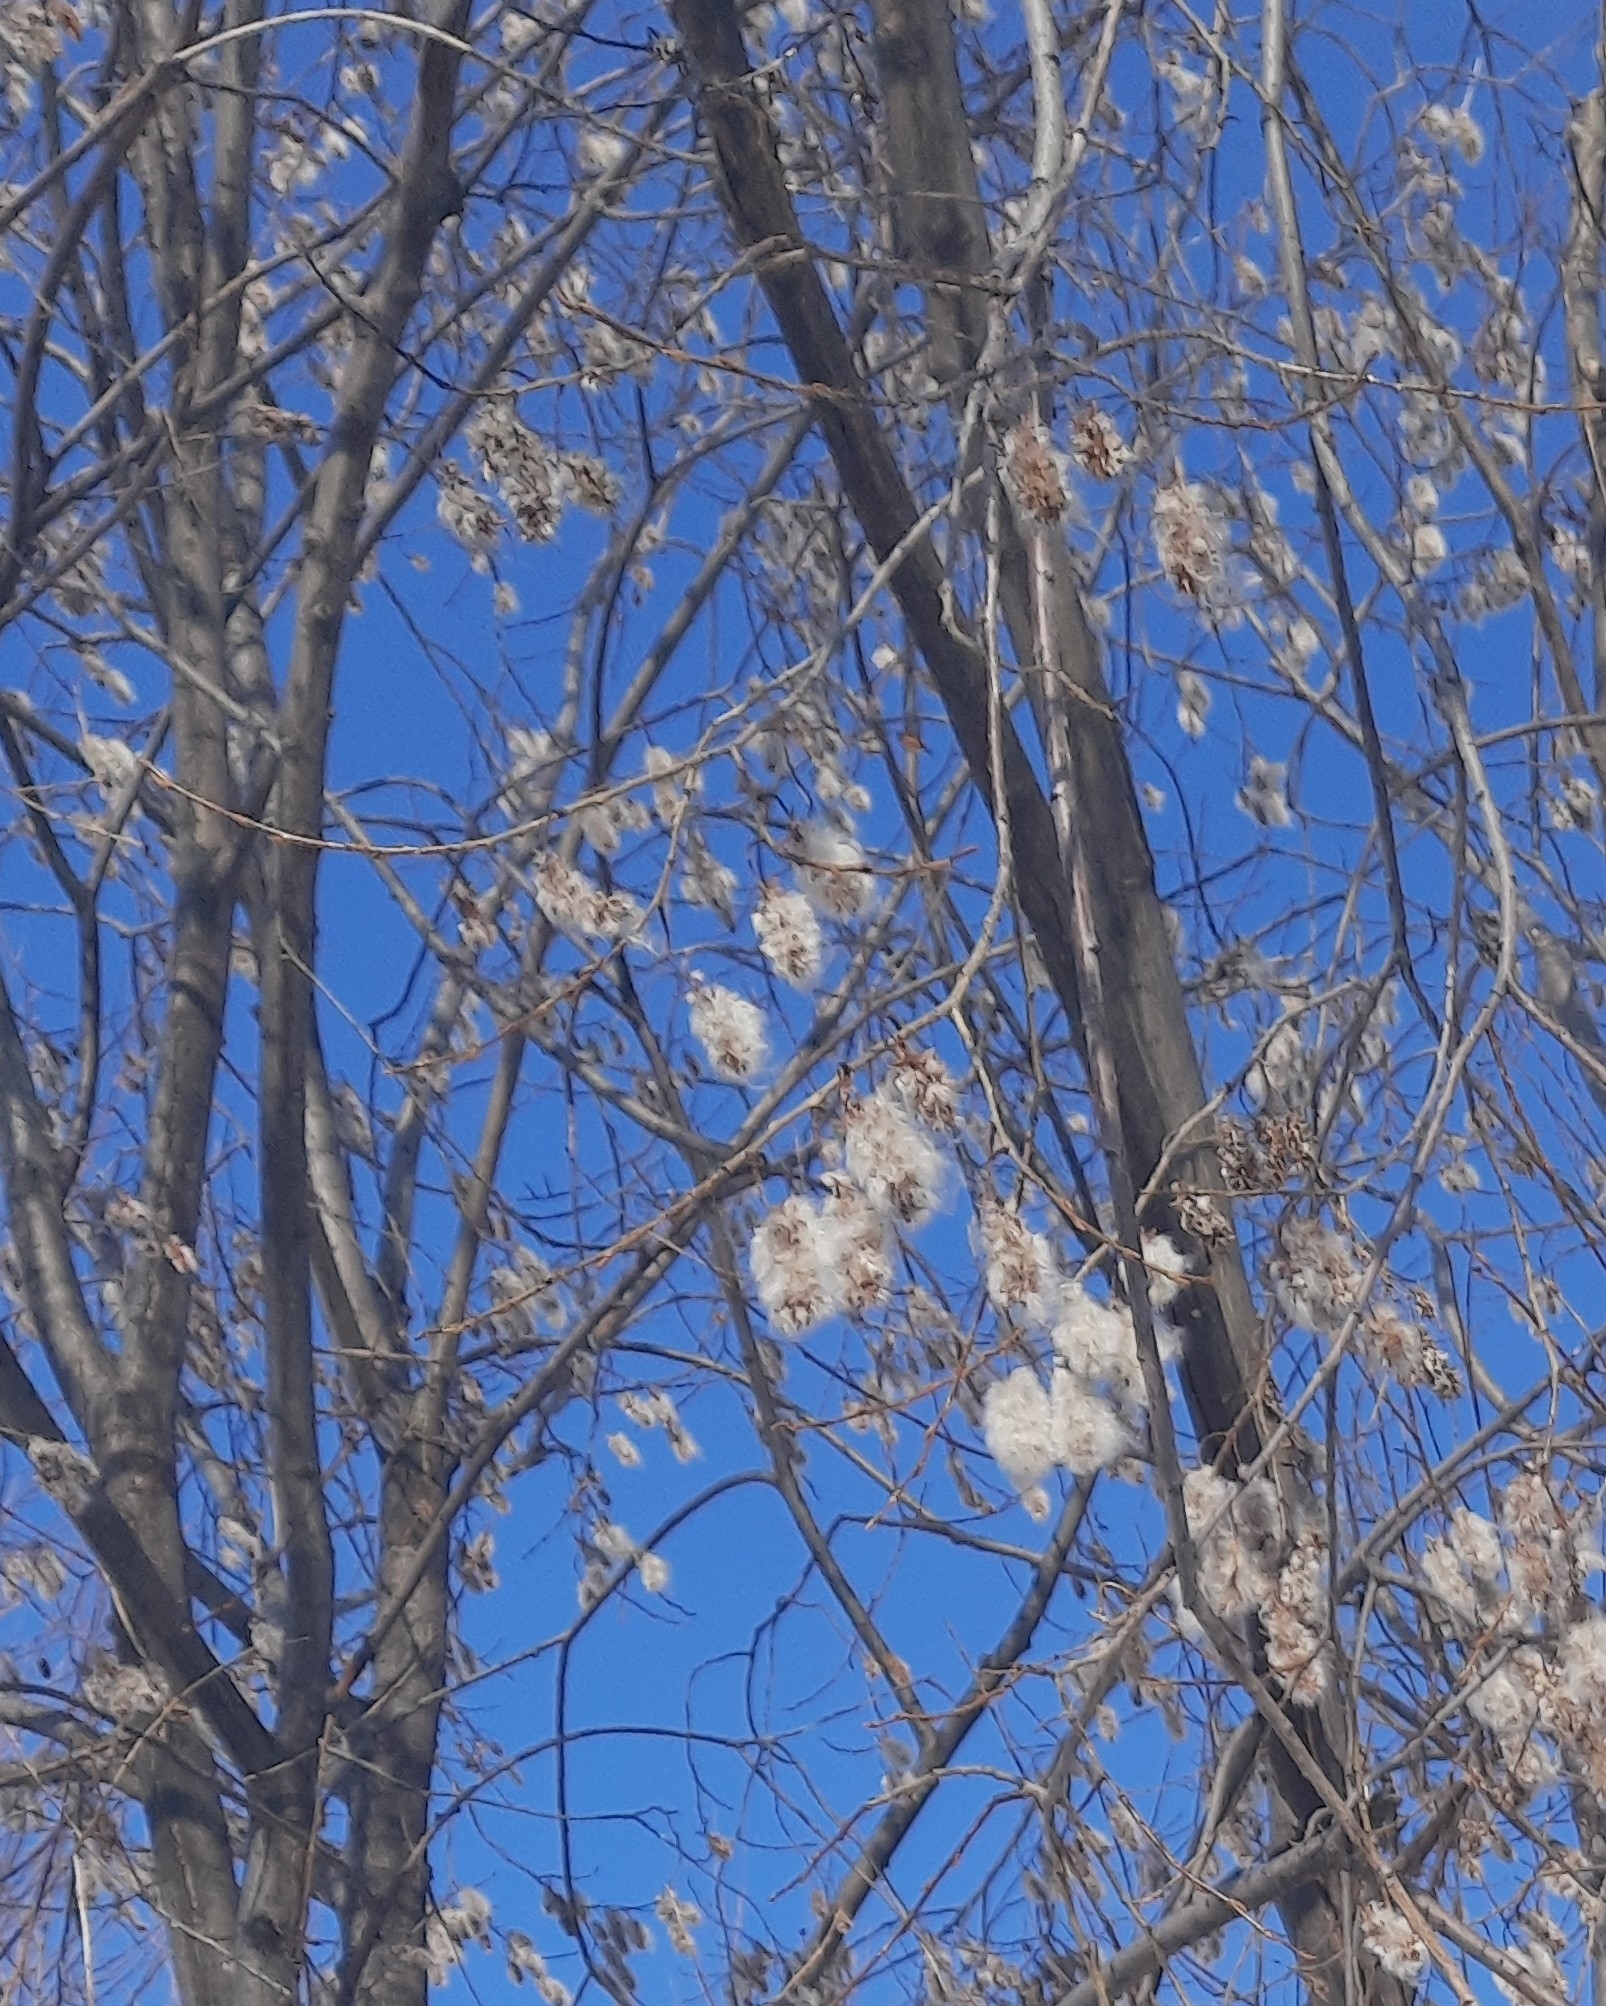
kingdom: Plantae
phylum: Tracheophyta
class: Magnoliopsida
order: Malpighiales
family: Salicaceae
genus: Salix
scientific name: Salix pentandra
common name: Bay willow
